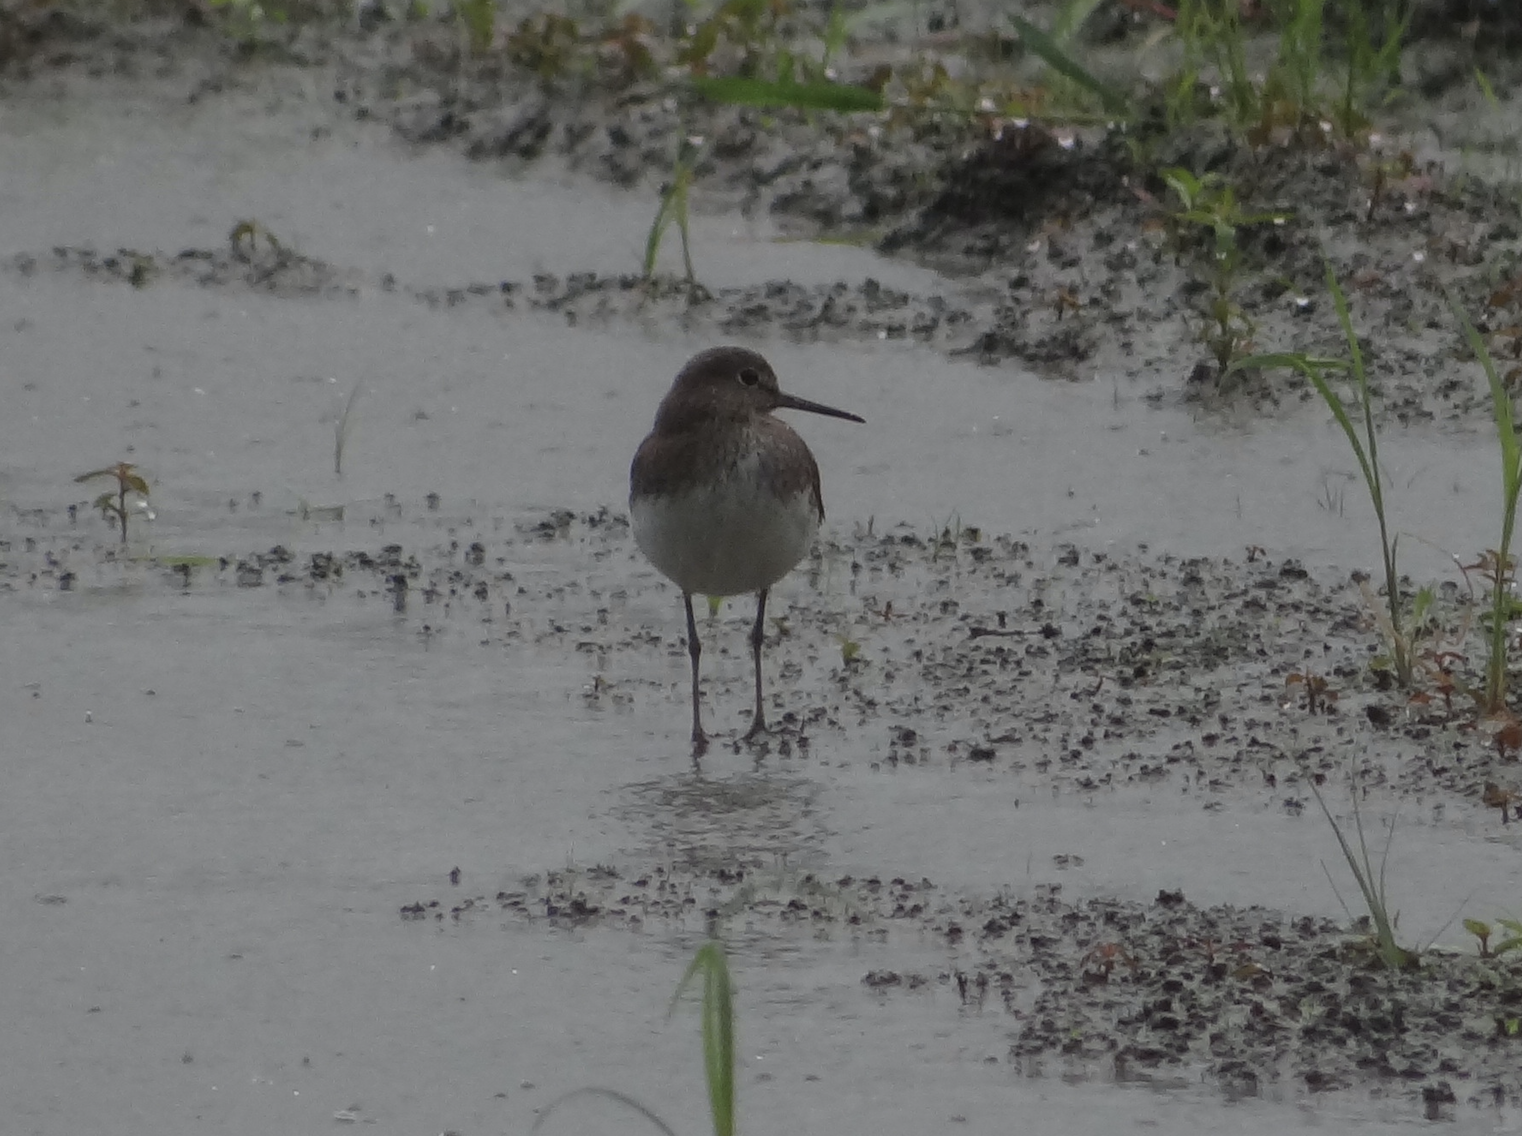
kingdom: Animalia
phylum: Chordata
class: Aves
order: Charadriiformes
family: Scolopacidae
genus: Tringa
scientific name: Tringa ochropus
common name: Green sandpiper
